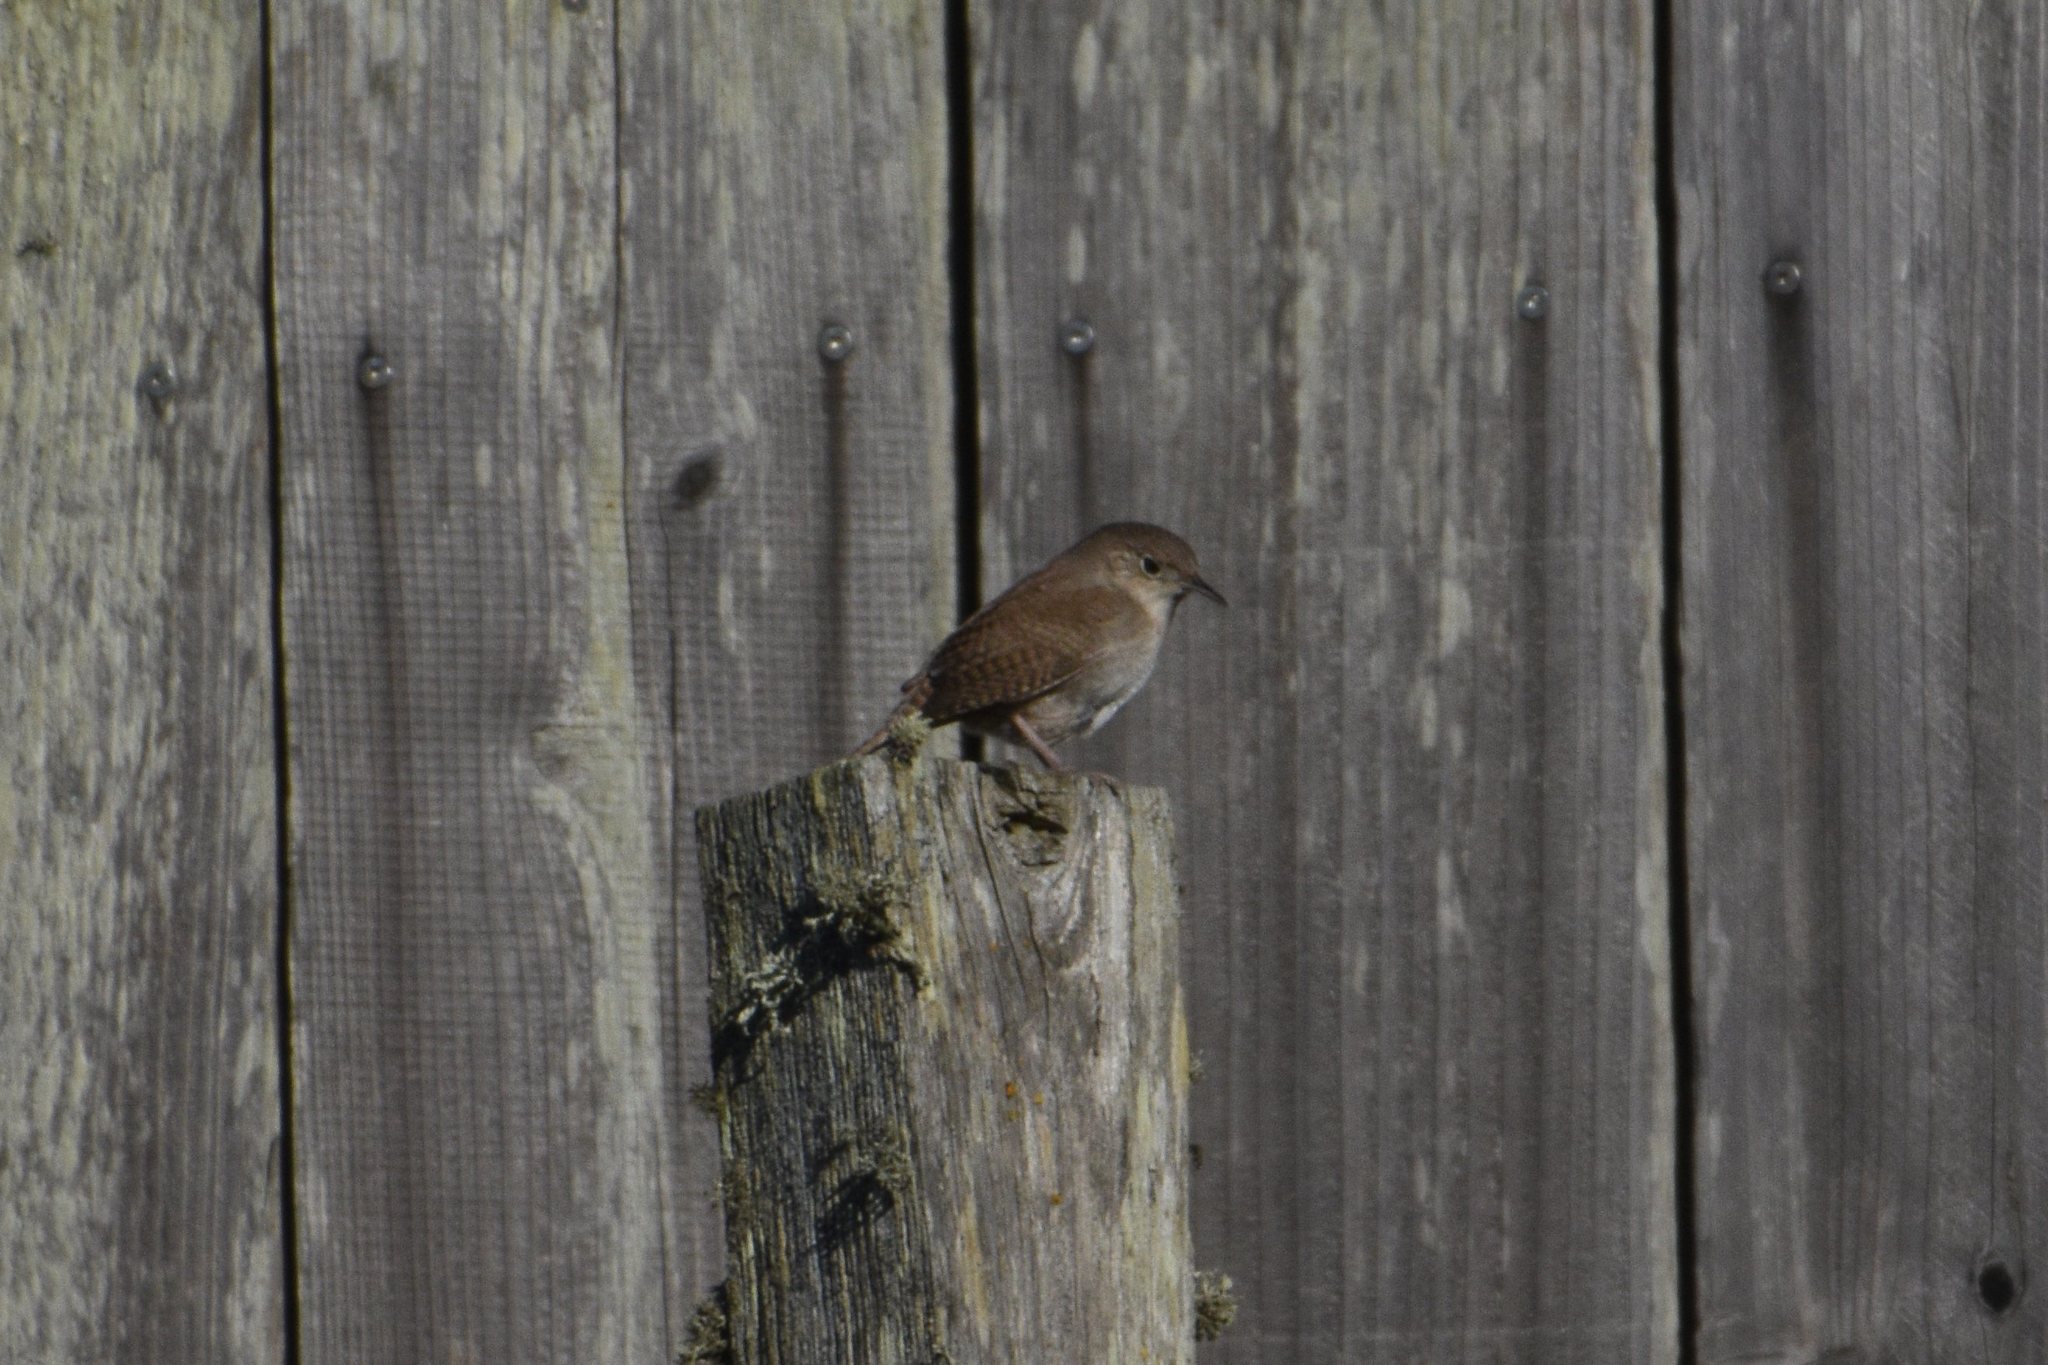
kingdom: Animalia
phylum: Chordata
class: Aves
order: Passeriformes
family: Troglodytidae
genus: Troglodytes
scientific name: Troglodytes aedon
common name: House wren
